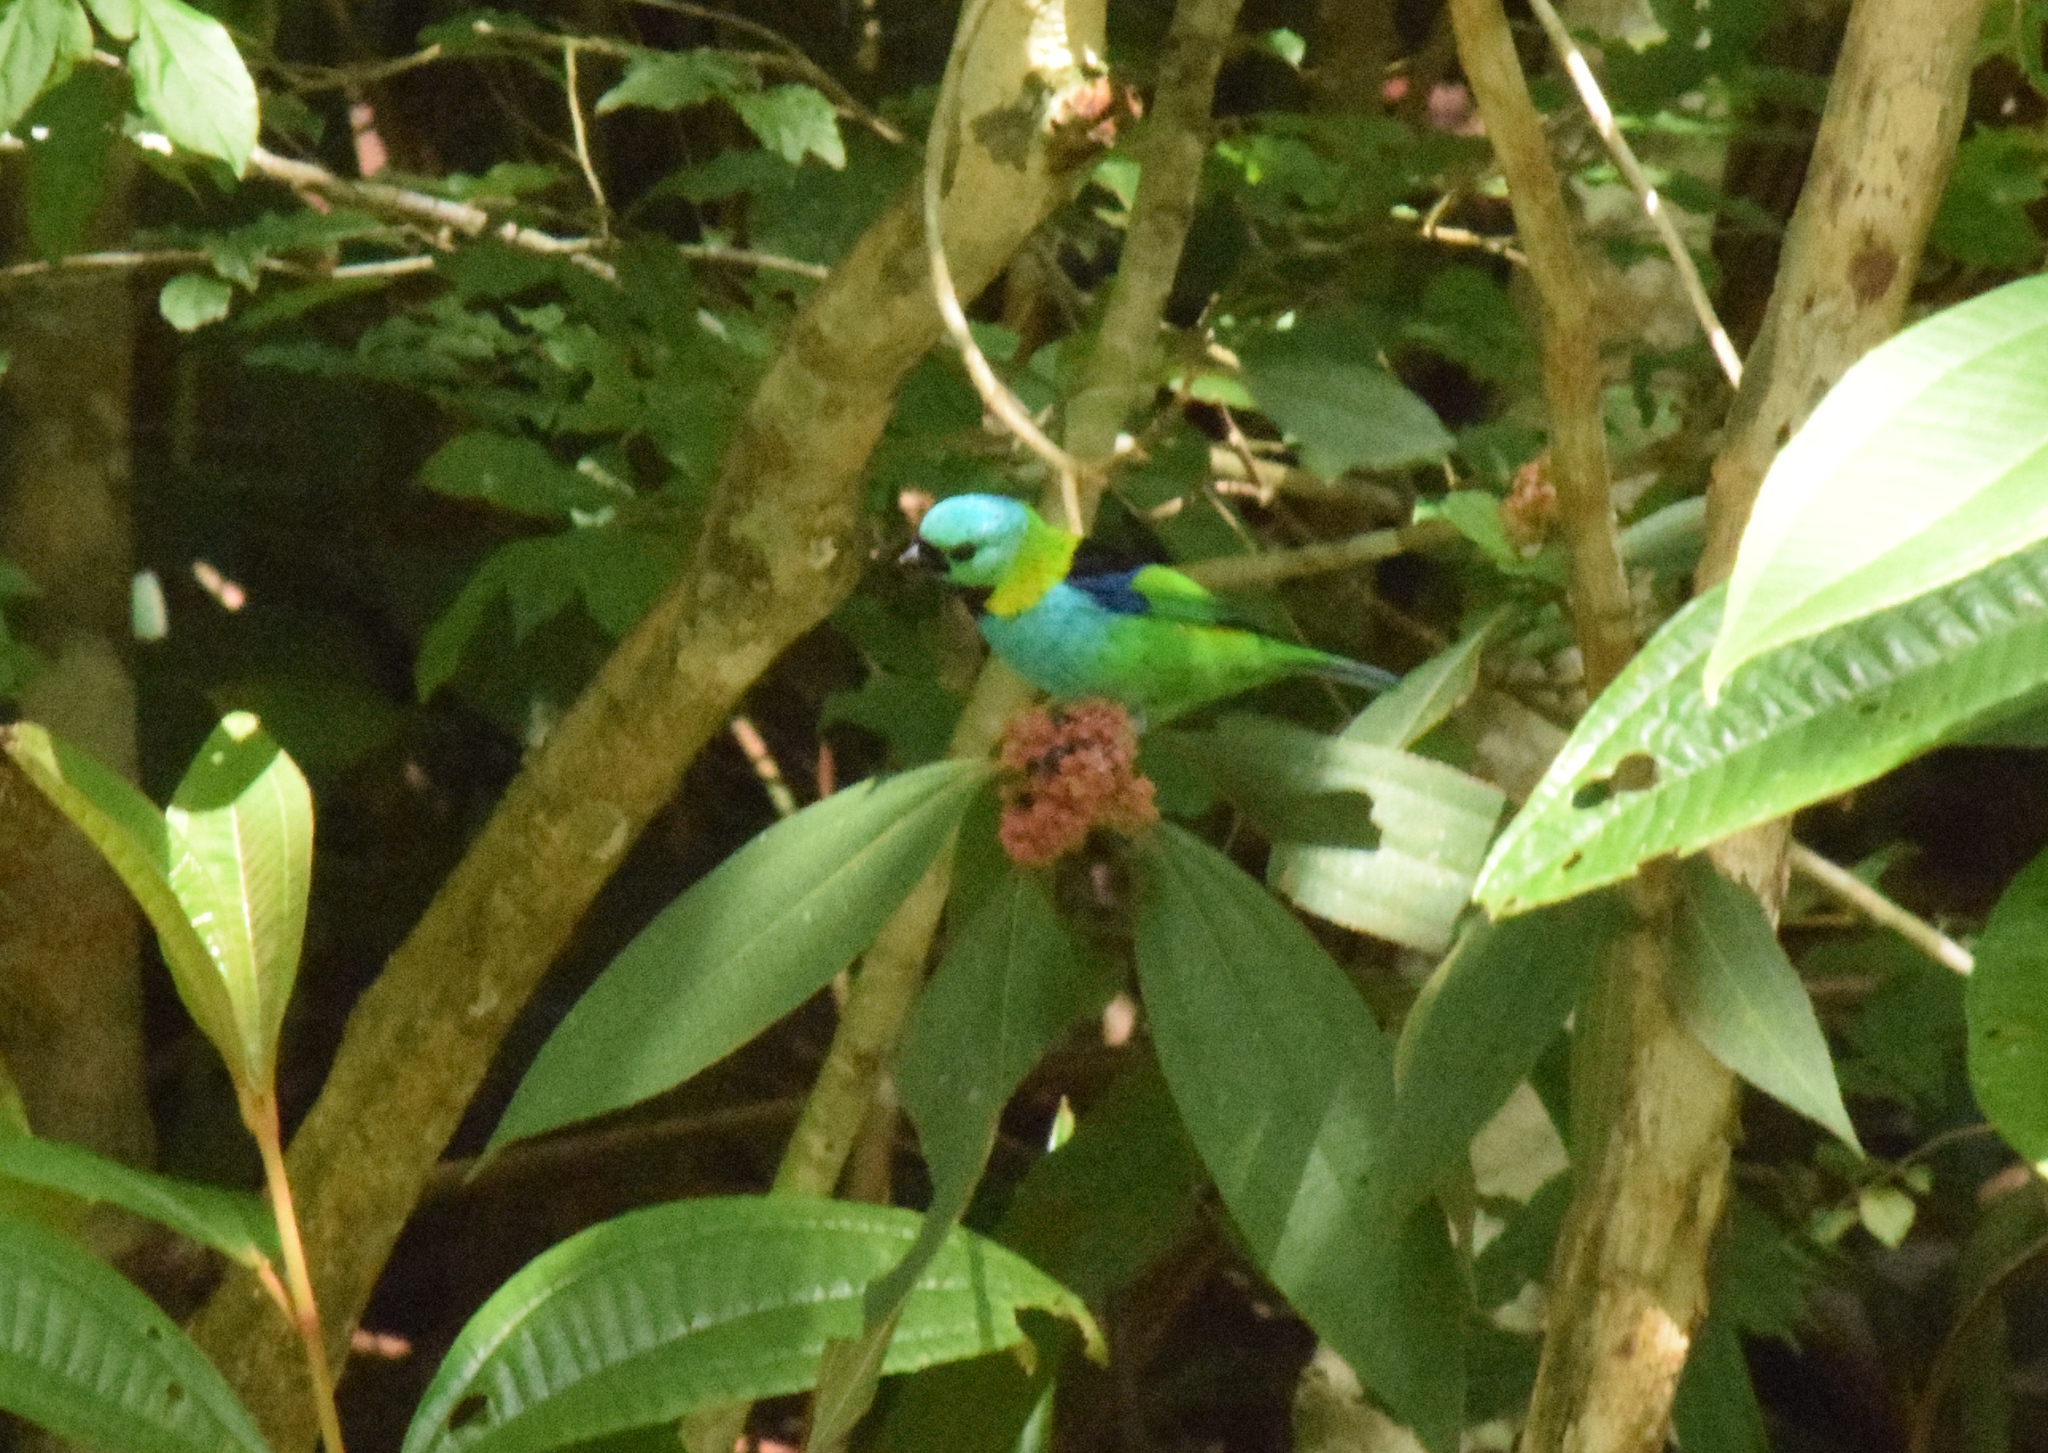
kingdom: Animalia
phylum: Chordata
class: Aves
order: Passeriformes
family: Thraupidae
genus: Tangara
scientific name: Tangara seledon
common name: Green-headed tanager
